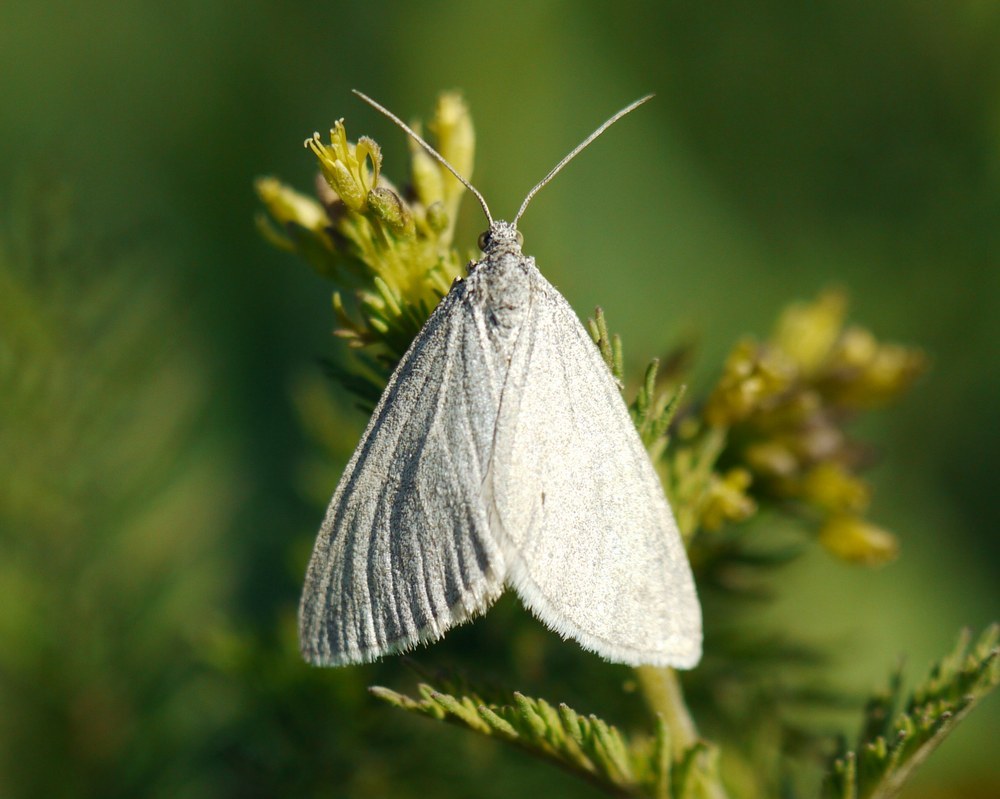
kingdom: Animalia
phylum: Arthropoda
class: Insecta
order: Lepidoptera
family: Geometridae
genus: Lithostege
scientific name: Lithostege farinata
